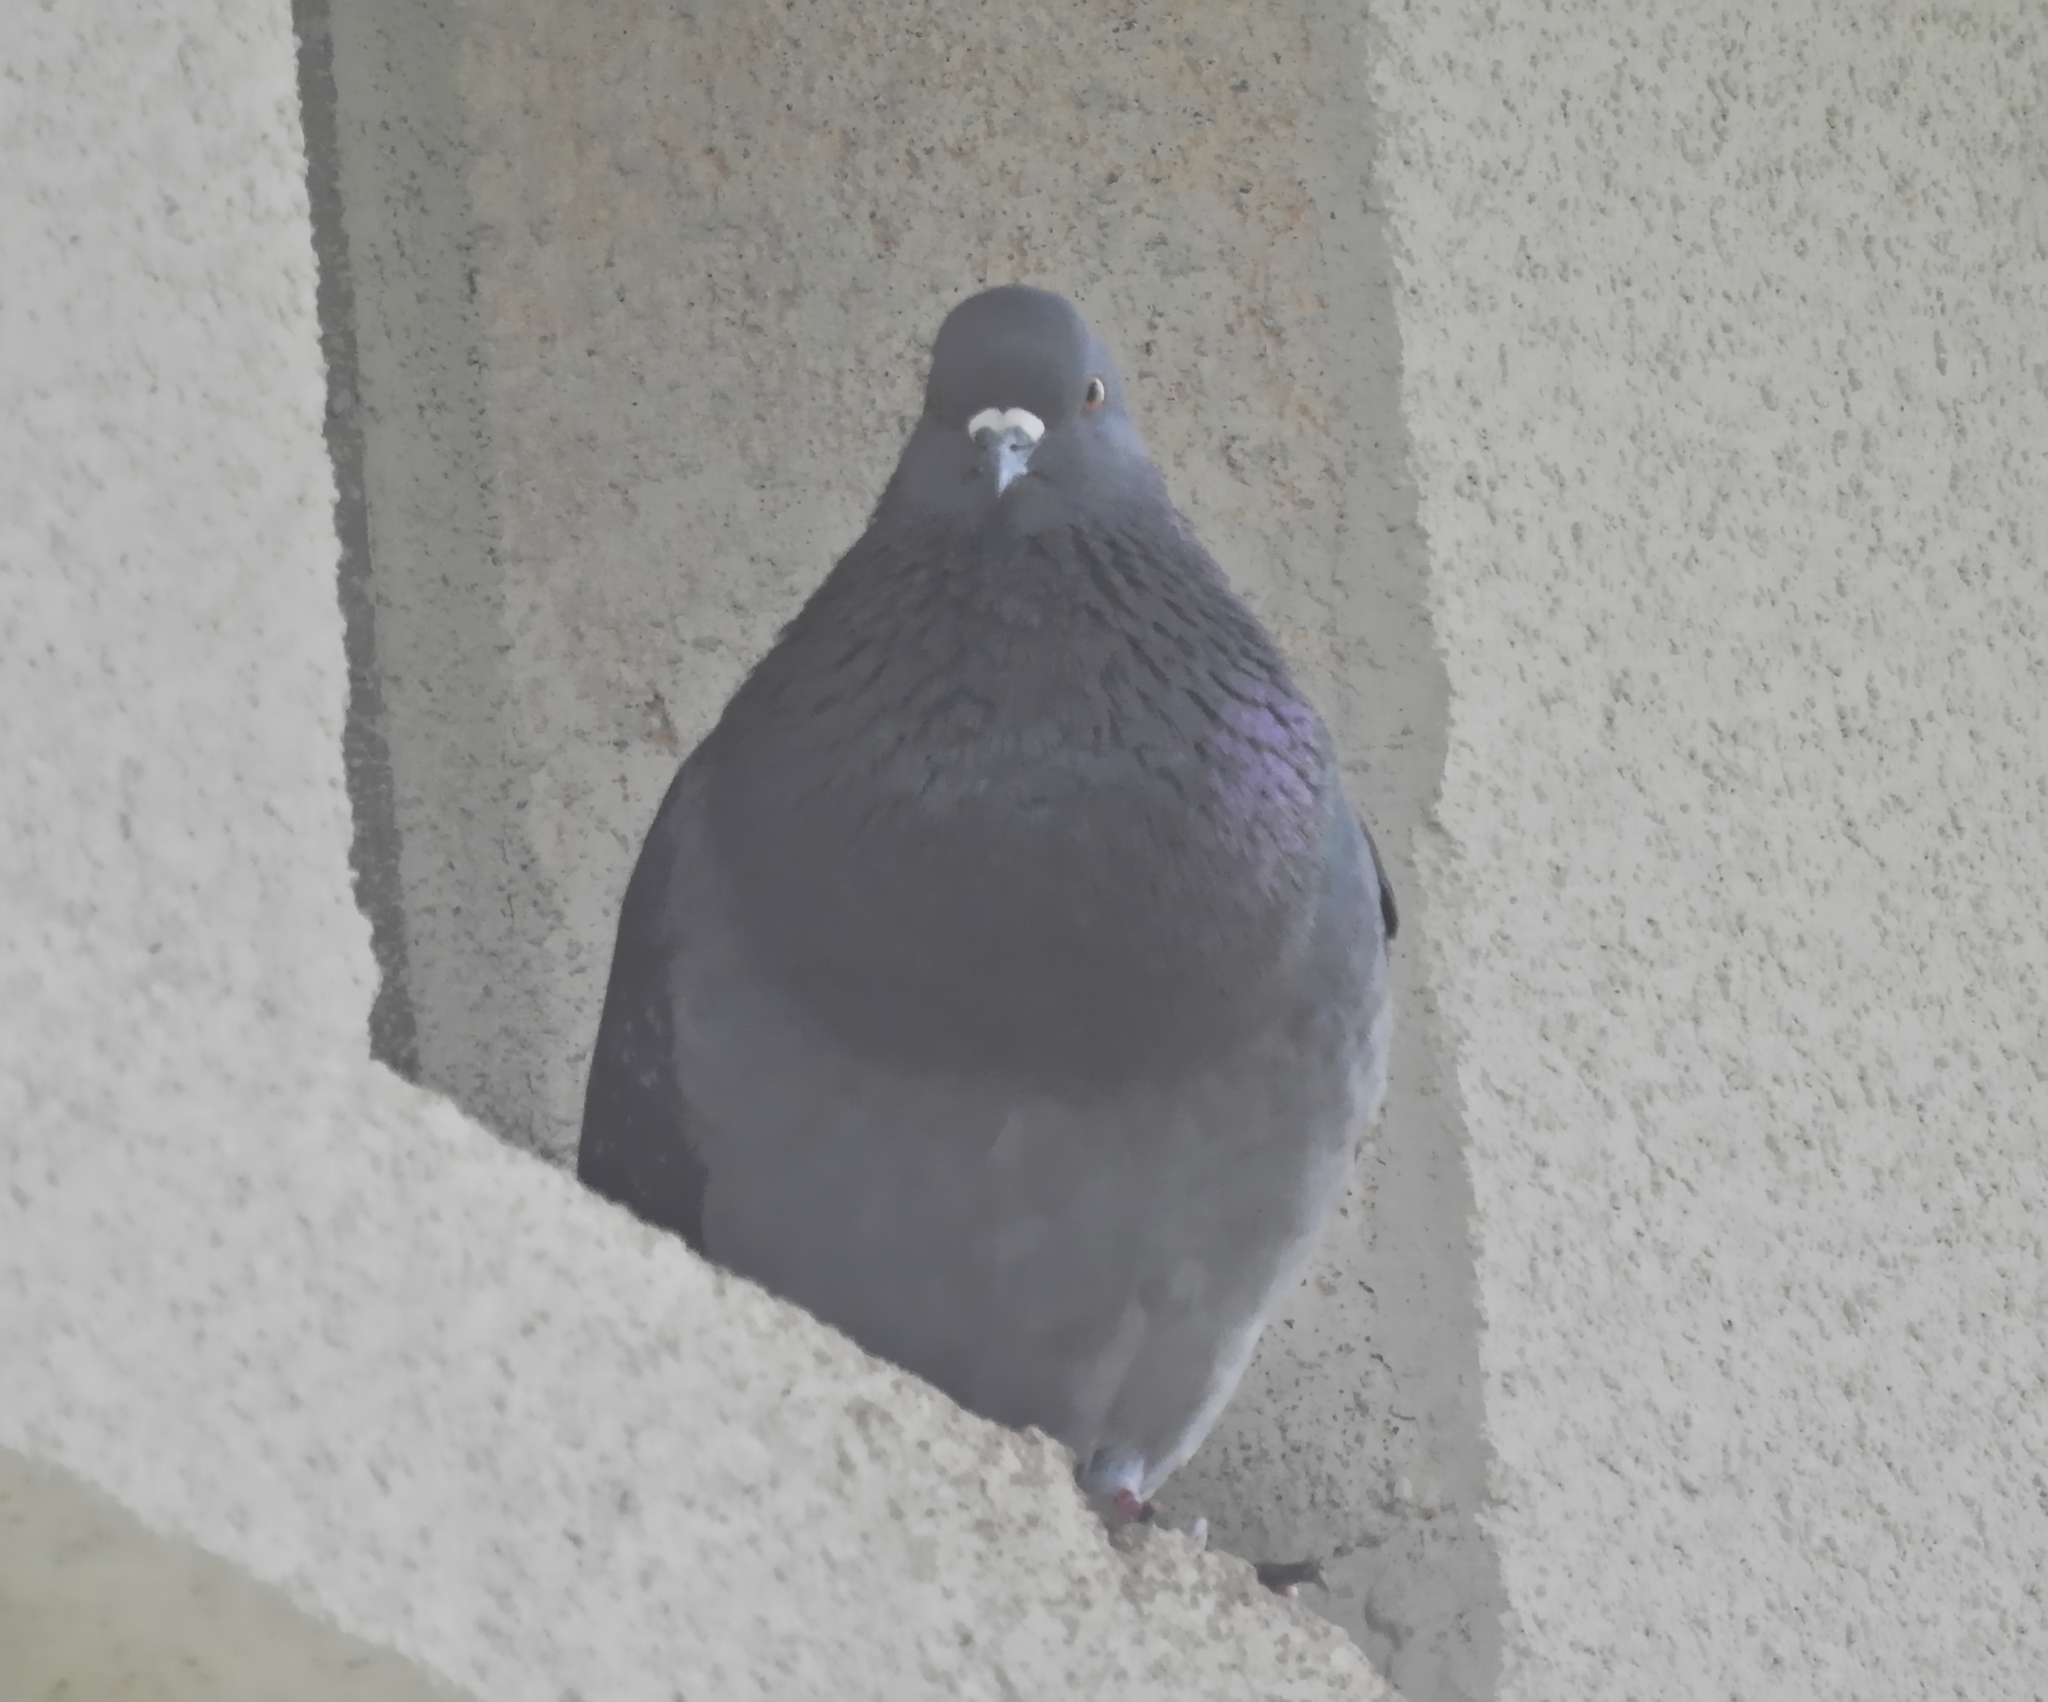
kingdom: Animalia
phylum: Chordata
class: Aves
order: Columbiformes
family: Columbidae
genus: Columba
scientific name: Columba livia
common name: Rock pigeon
